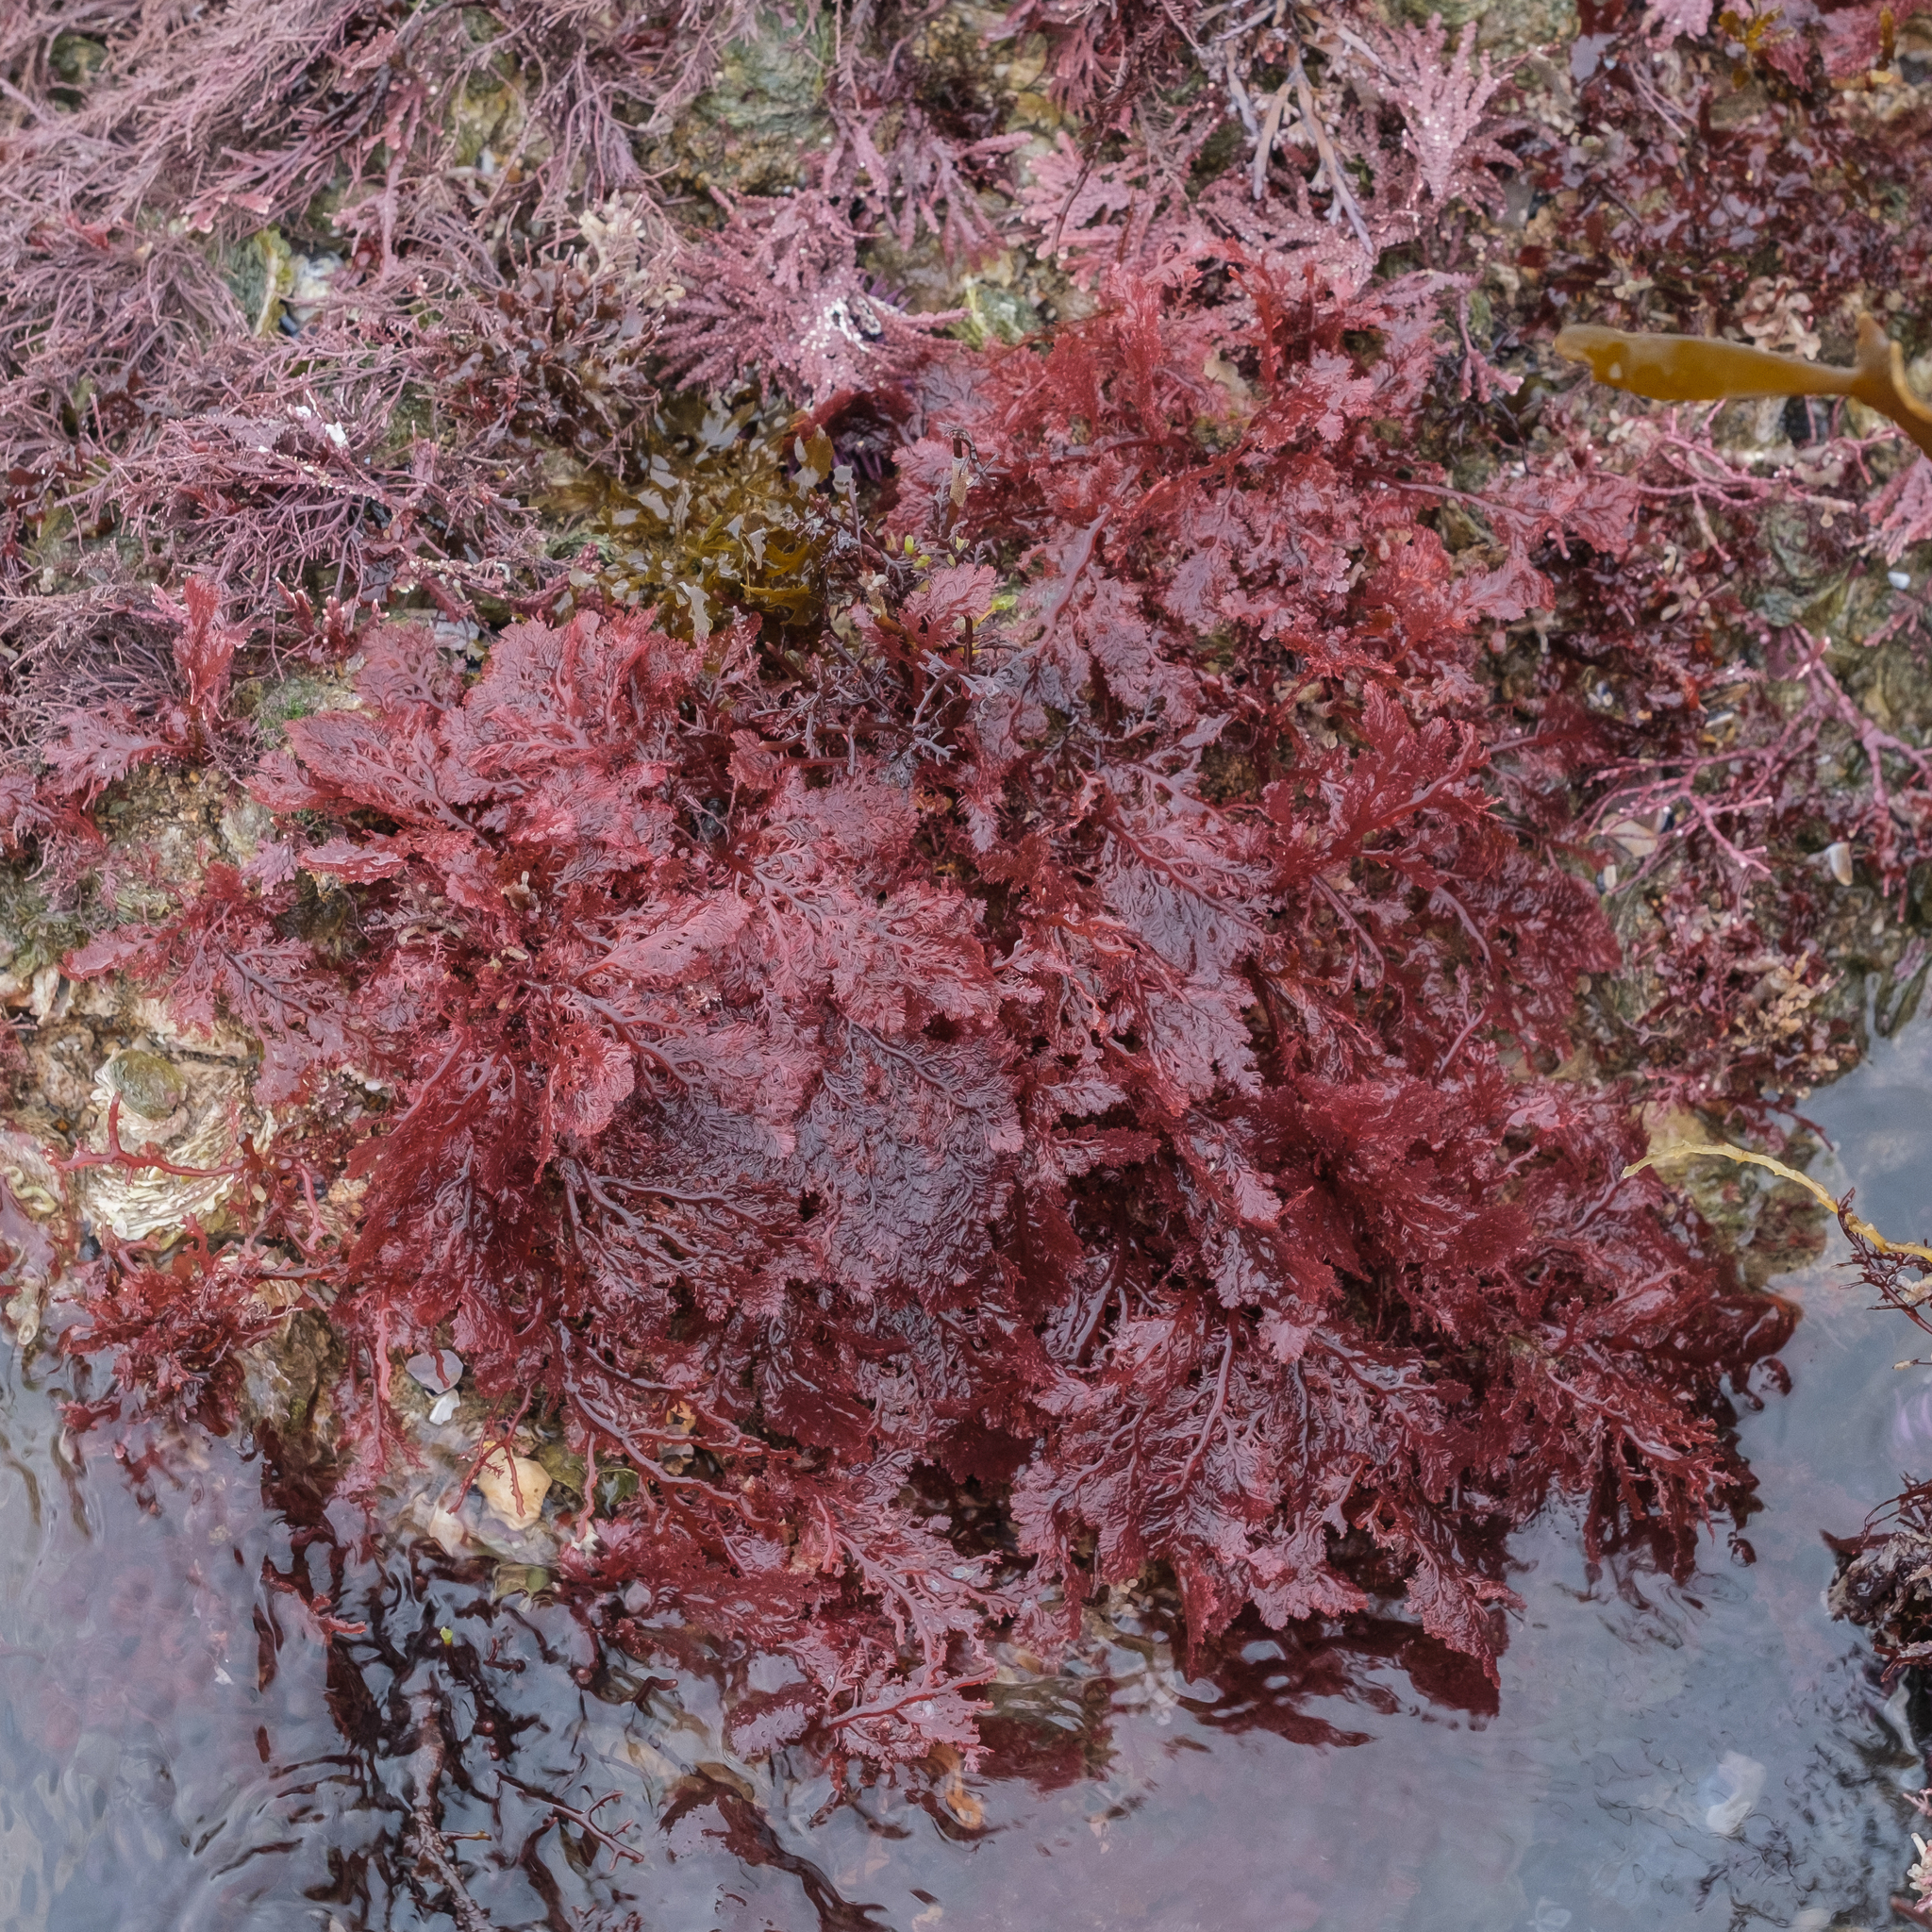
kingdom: Plantae
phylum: Rhodophyta
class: Florideophyceae
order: Plocamiales
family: Plocamiaceae
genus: Plocamium
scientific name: Plocamium cartilagineum
